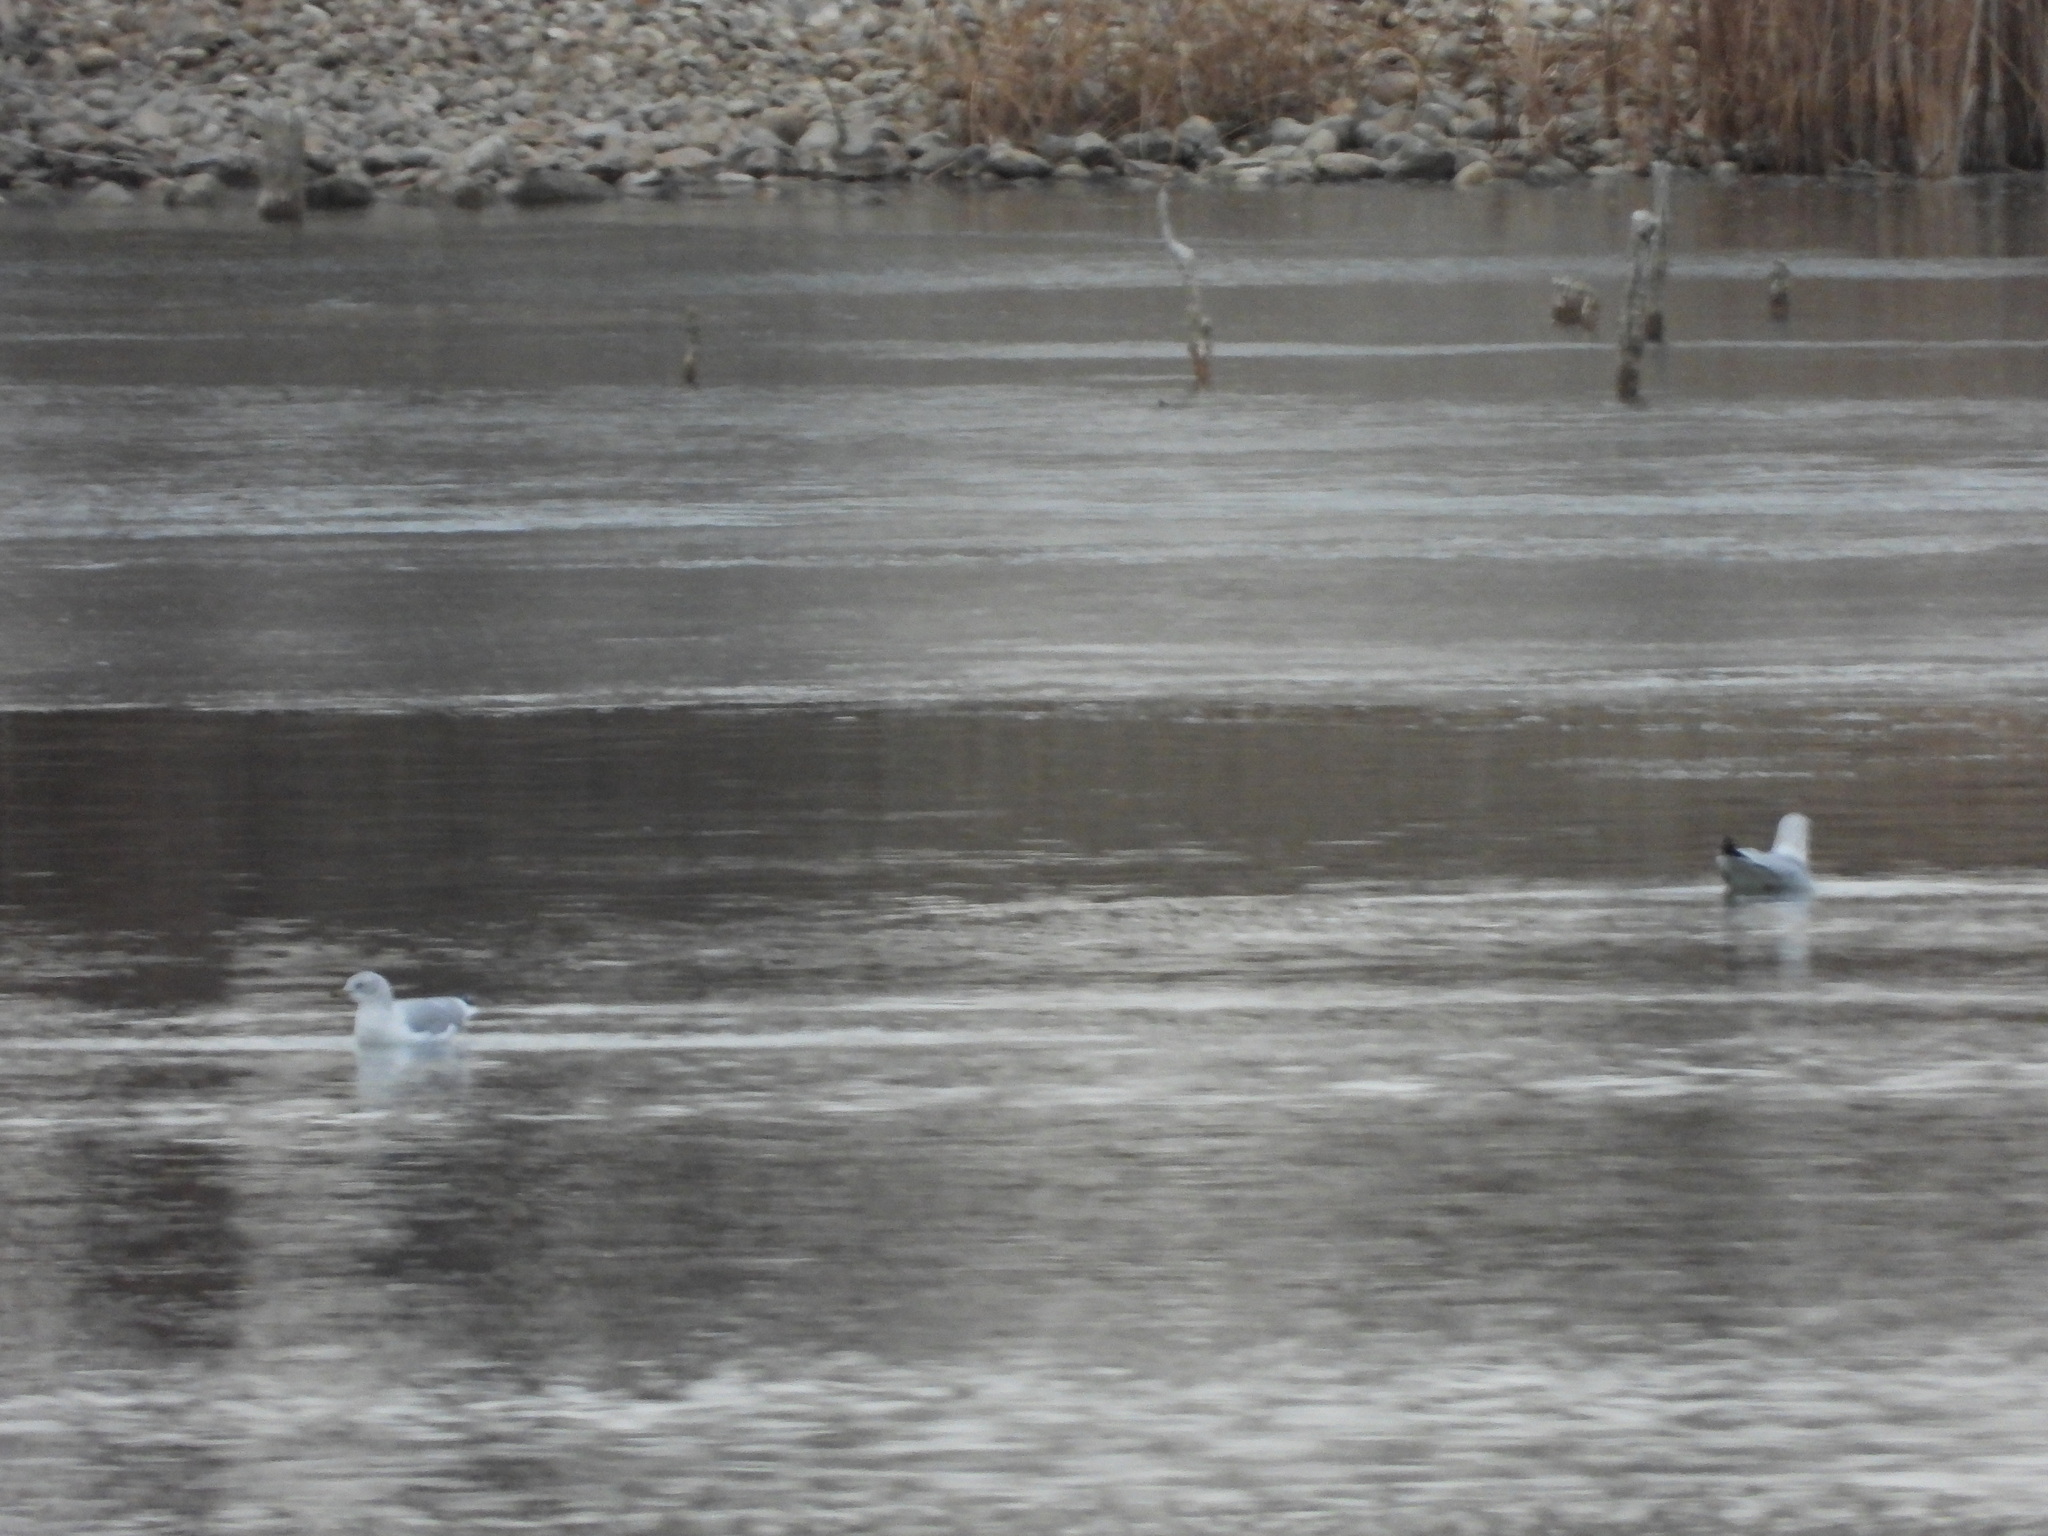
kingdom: Animalia
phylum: Chordata
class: Aves
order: Charadriiformes
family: Laridae
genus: Larus
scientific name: Larus delawarensis
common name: Ring-billed gull
